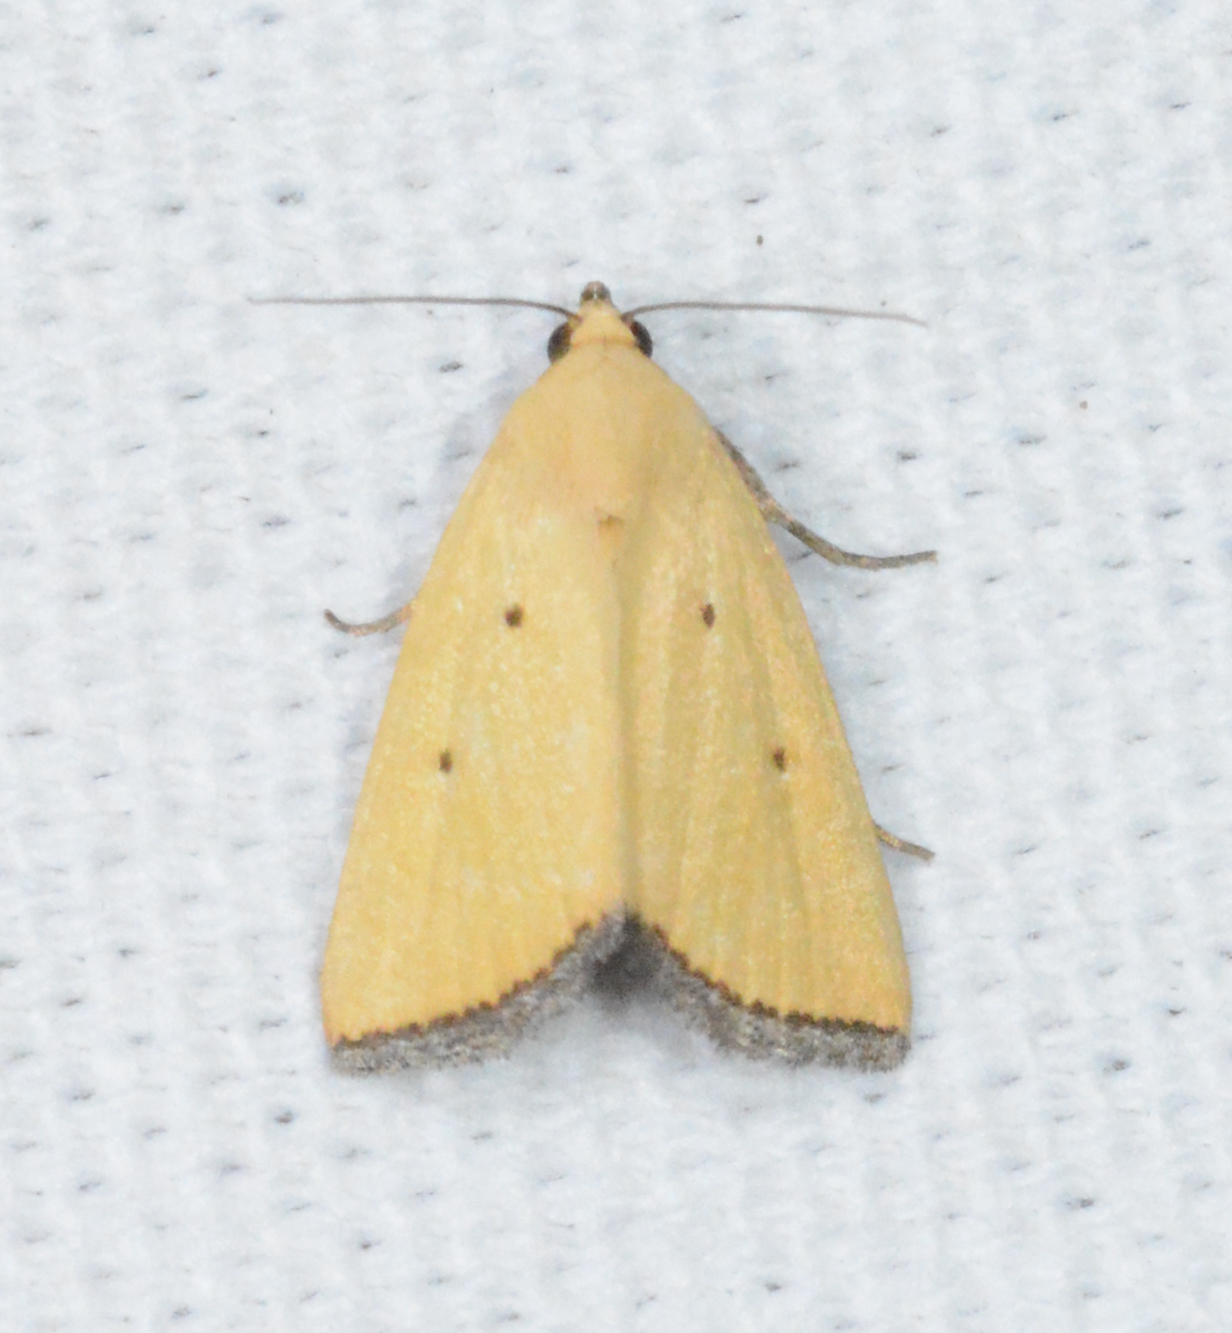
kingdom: Animalia
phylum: Arthropoda
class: Insecta
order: Lepidoptera
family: Noctuidae
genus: Marimatha
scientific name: Marimatha nigrofimbria
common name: Black-bordered lemon moth
